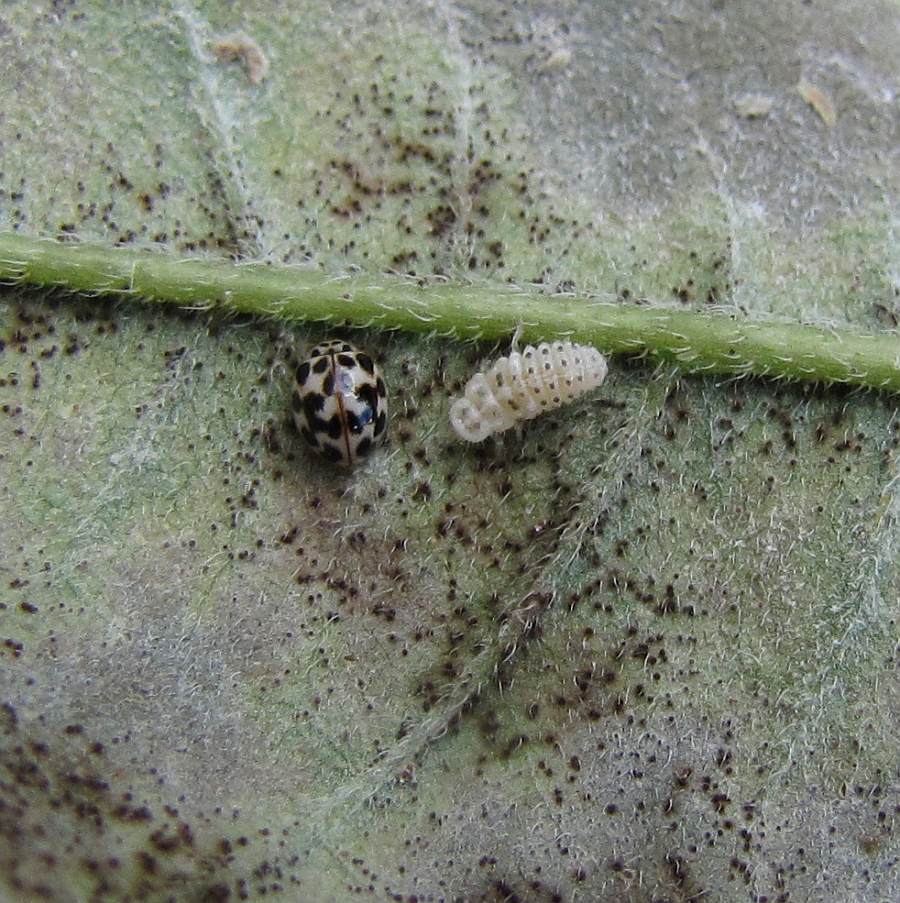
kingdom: Animalia
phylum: Arthropoda
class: Insecta
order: Coleoptera
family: Coccinellidae
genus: Psyllobora
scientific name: Psyllobora vigintimaculata
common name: Ladybird beetle
